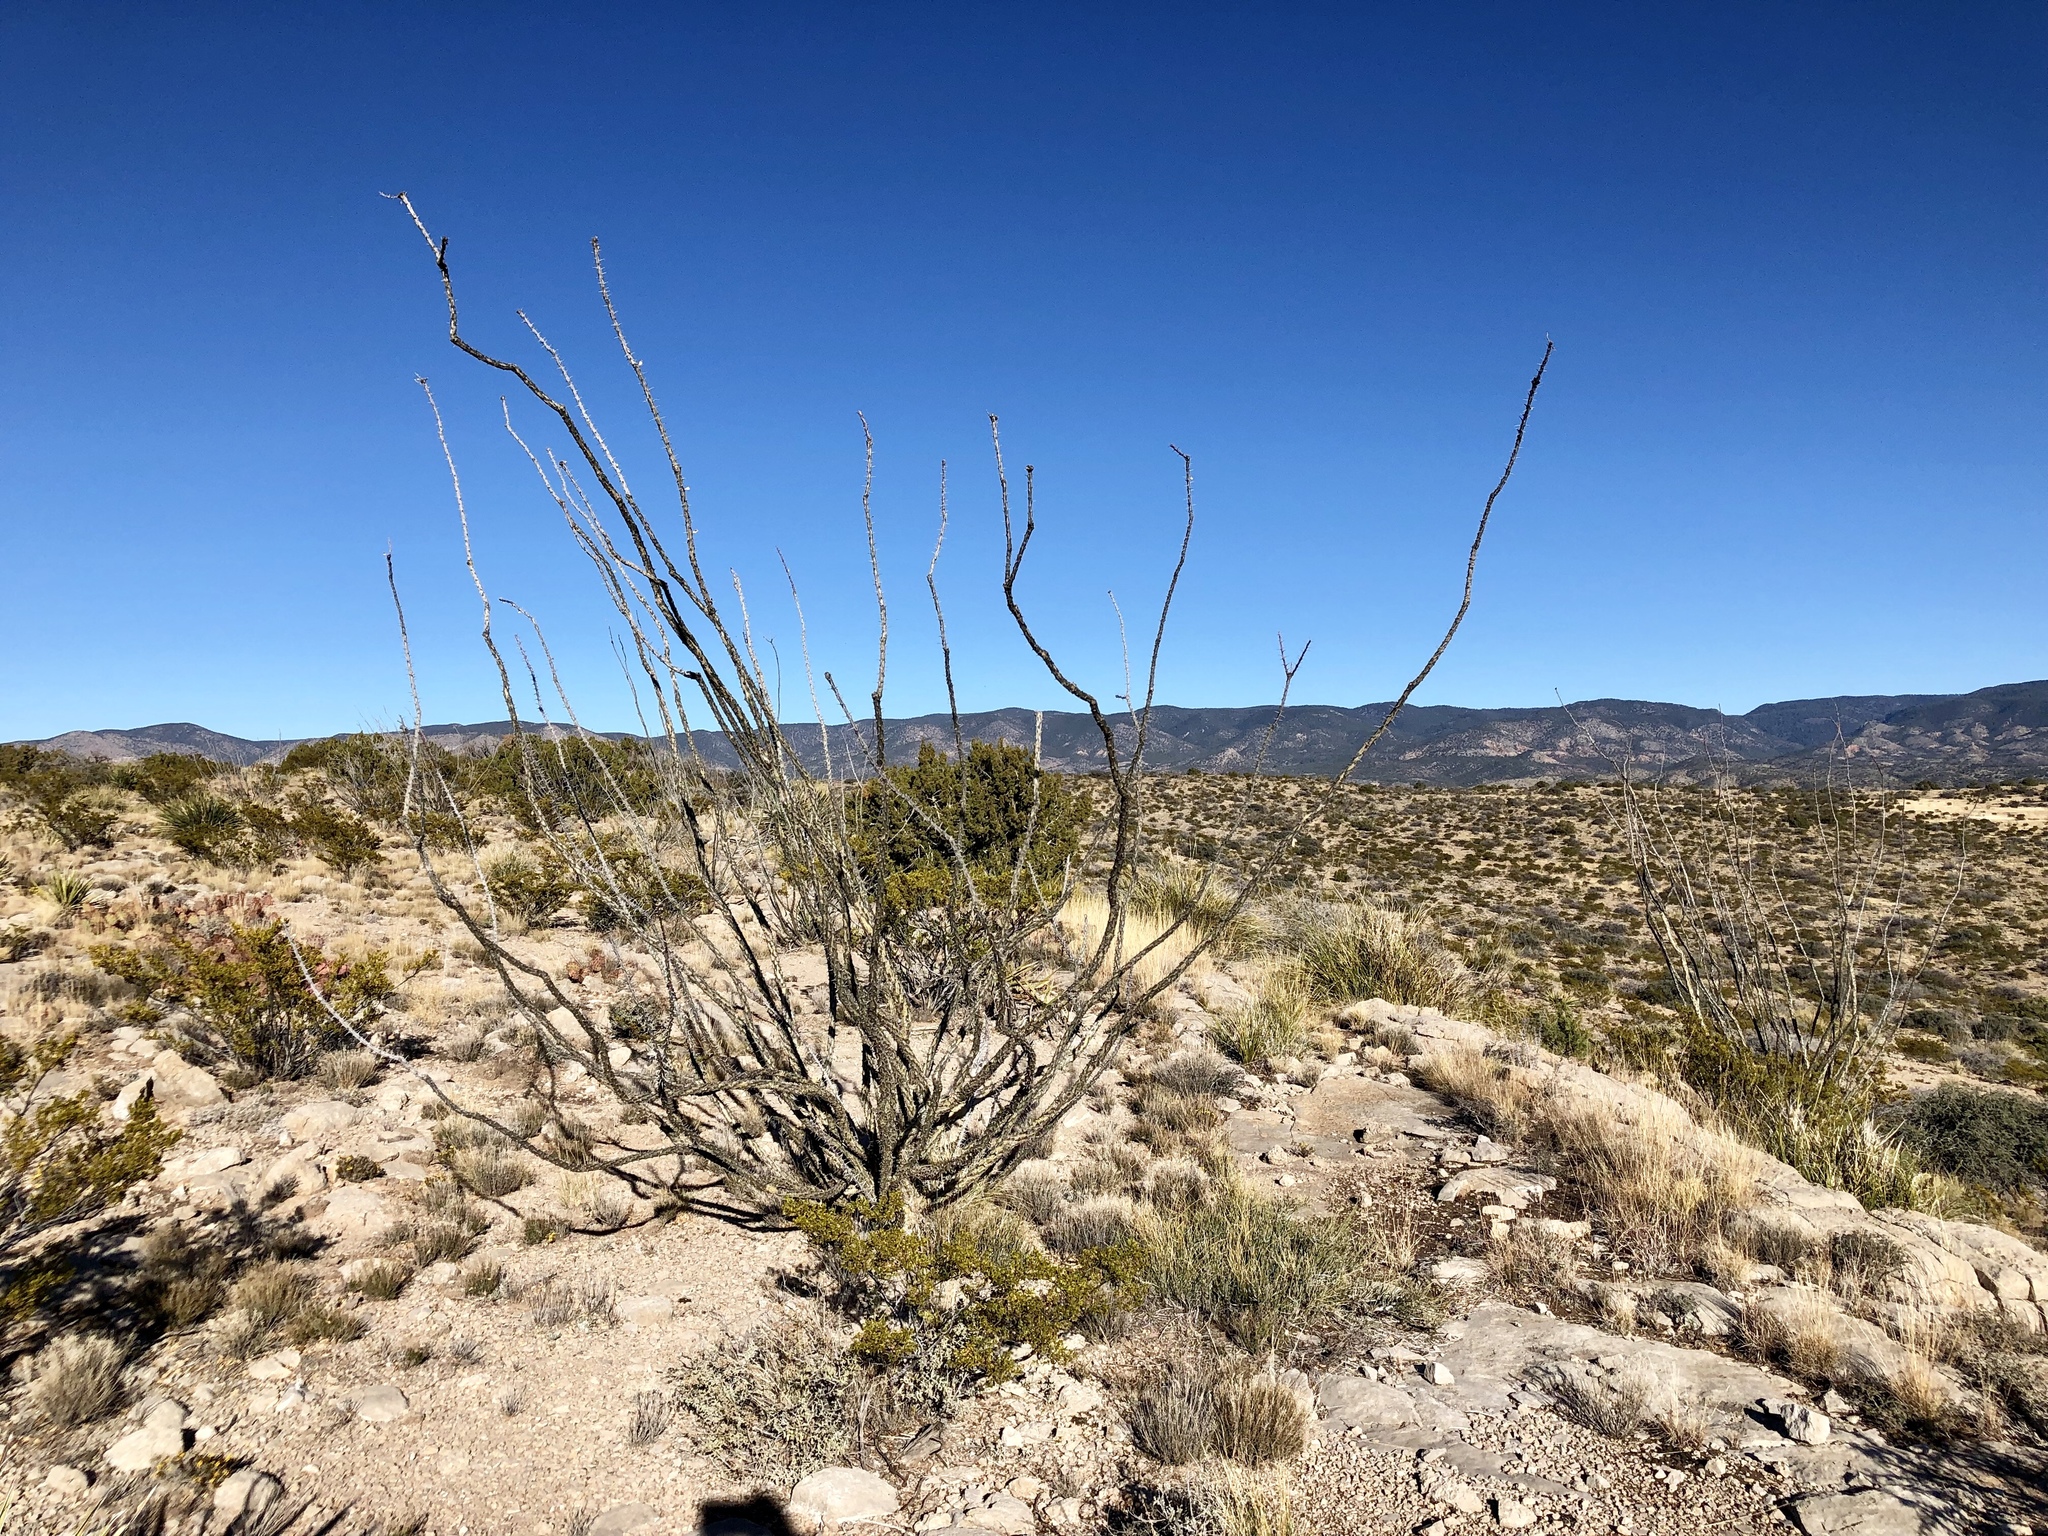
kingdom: Plantae
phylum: Tracheophyta
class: Magnoliopsida
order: Ericales
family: Fouquieriaceae
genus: Fouquieria
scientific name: Fouquieria splendens
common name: Vine-cactus
